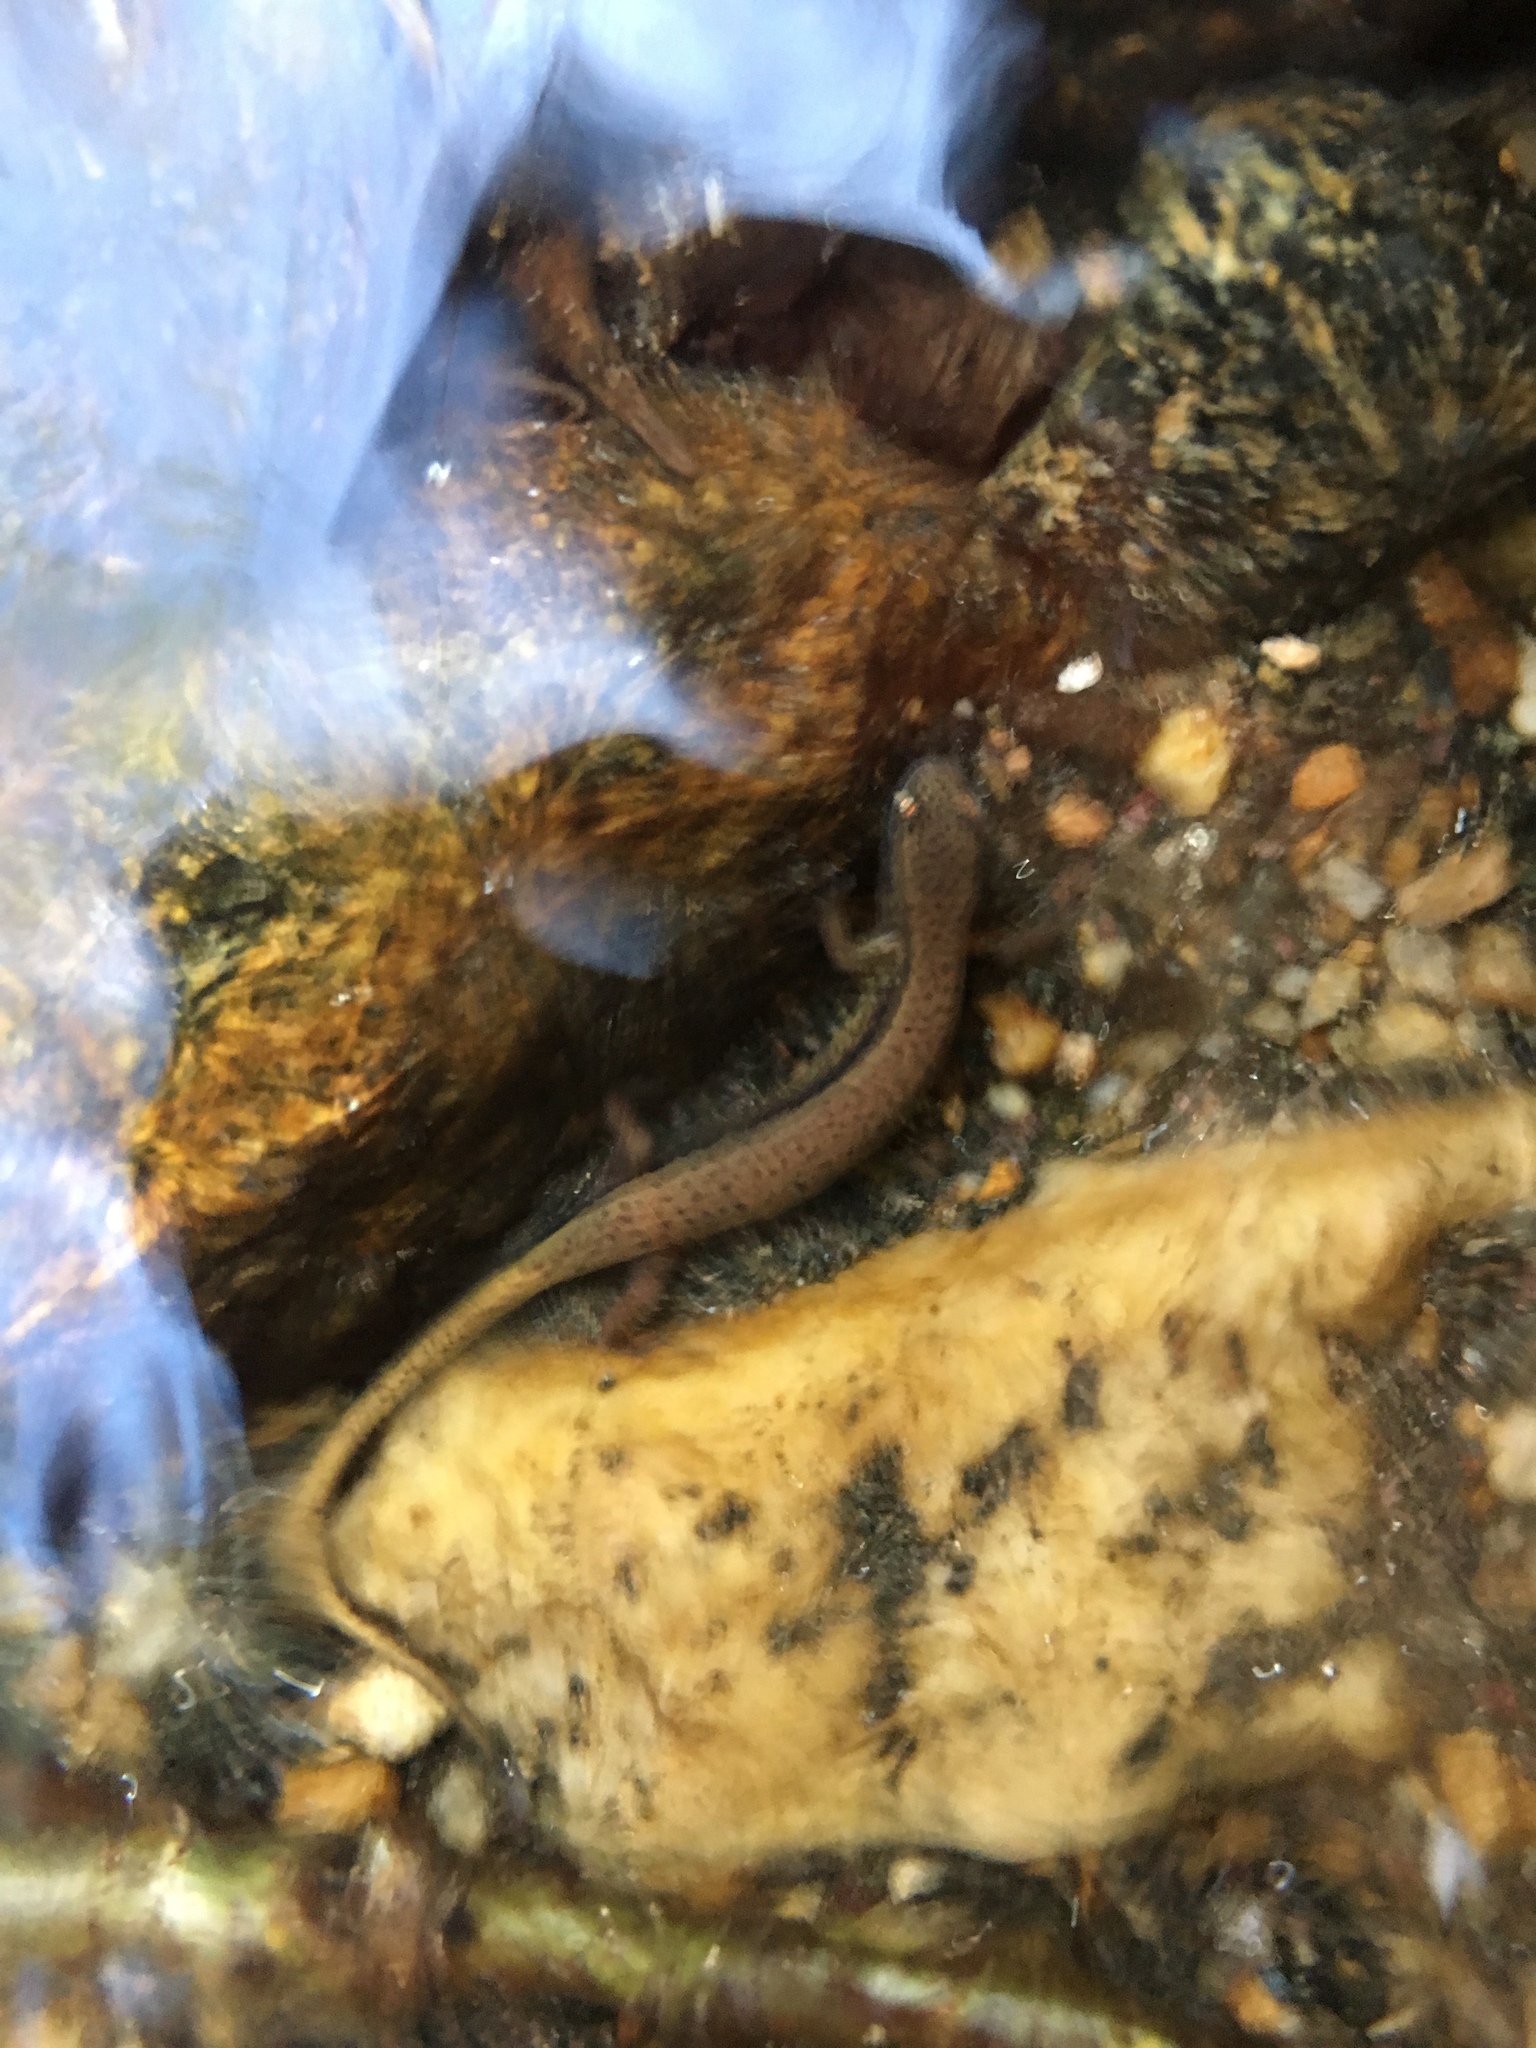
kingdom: Animalia
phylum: Chordata
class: Amphibia
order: Caudata
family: Plethodontidae
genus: Eurycea
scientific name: Eurycea wilderae
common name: Blue ridge two-lined salamander
